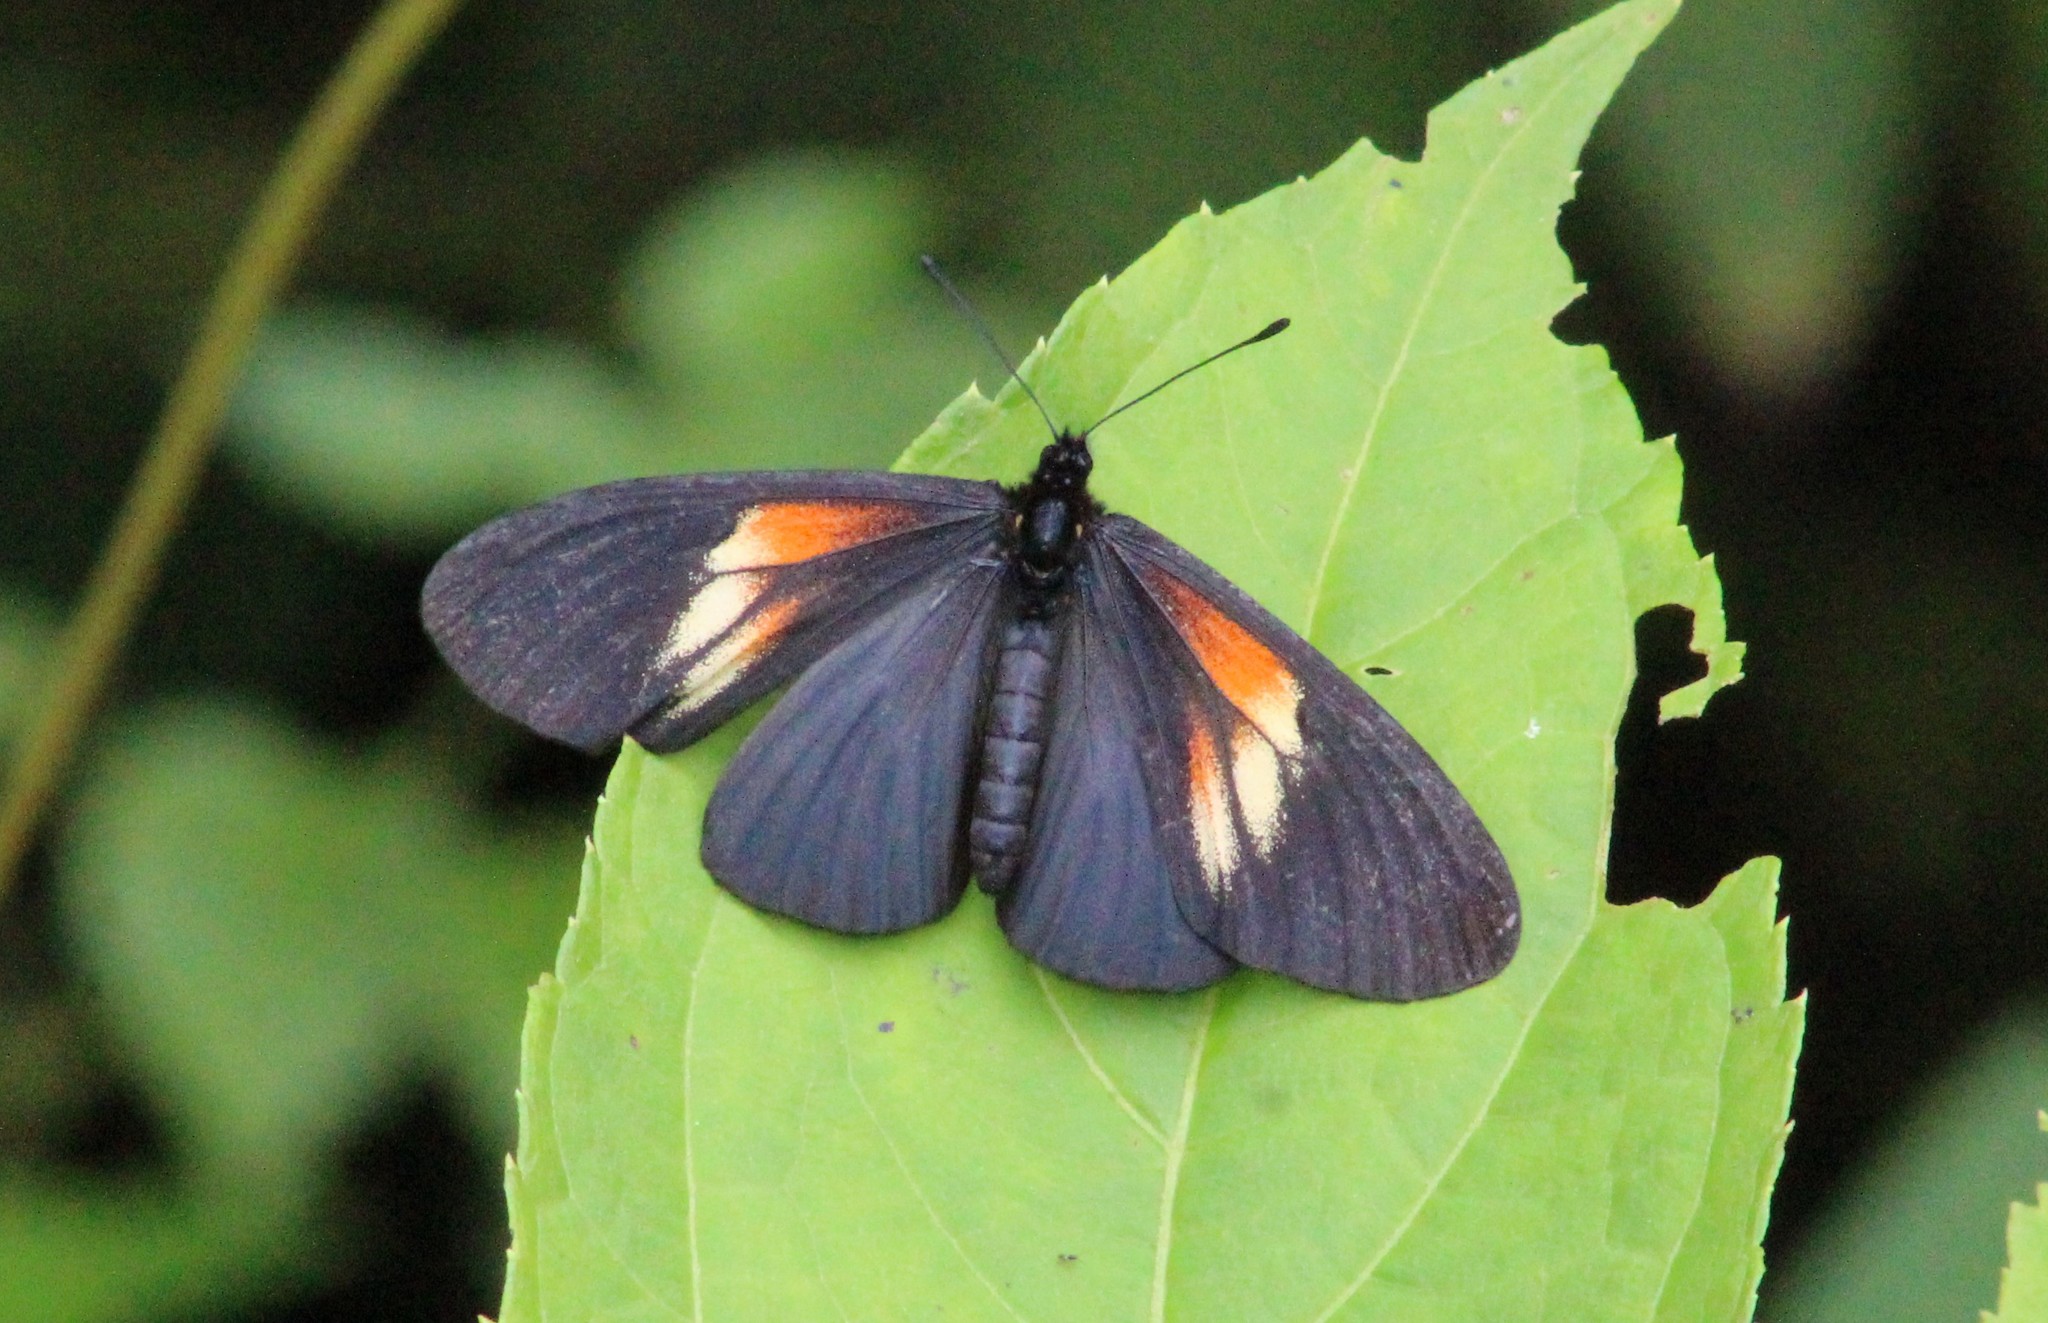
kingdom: Animalia
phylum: Arthropoda
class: Insecta
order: Lepidoptera
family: Nymphalidae
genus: Acraea
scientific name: Acraea Altinote ozomene
